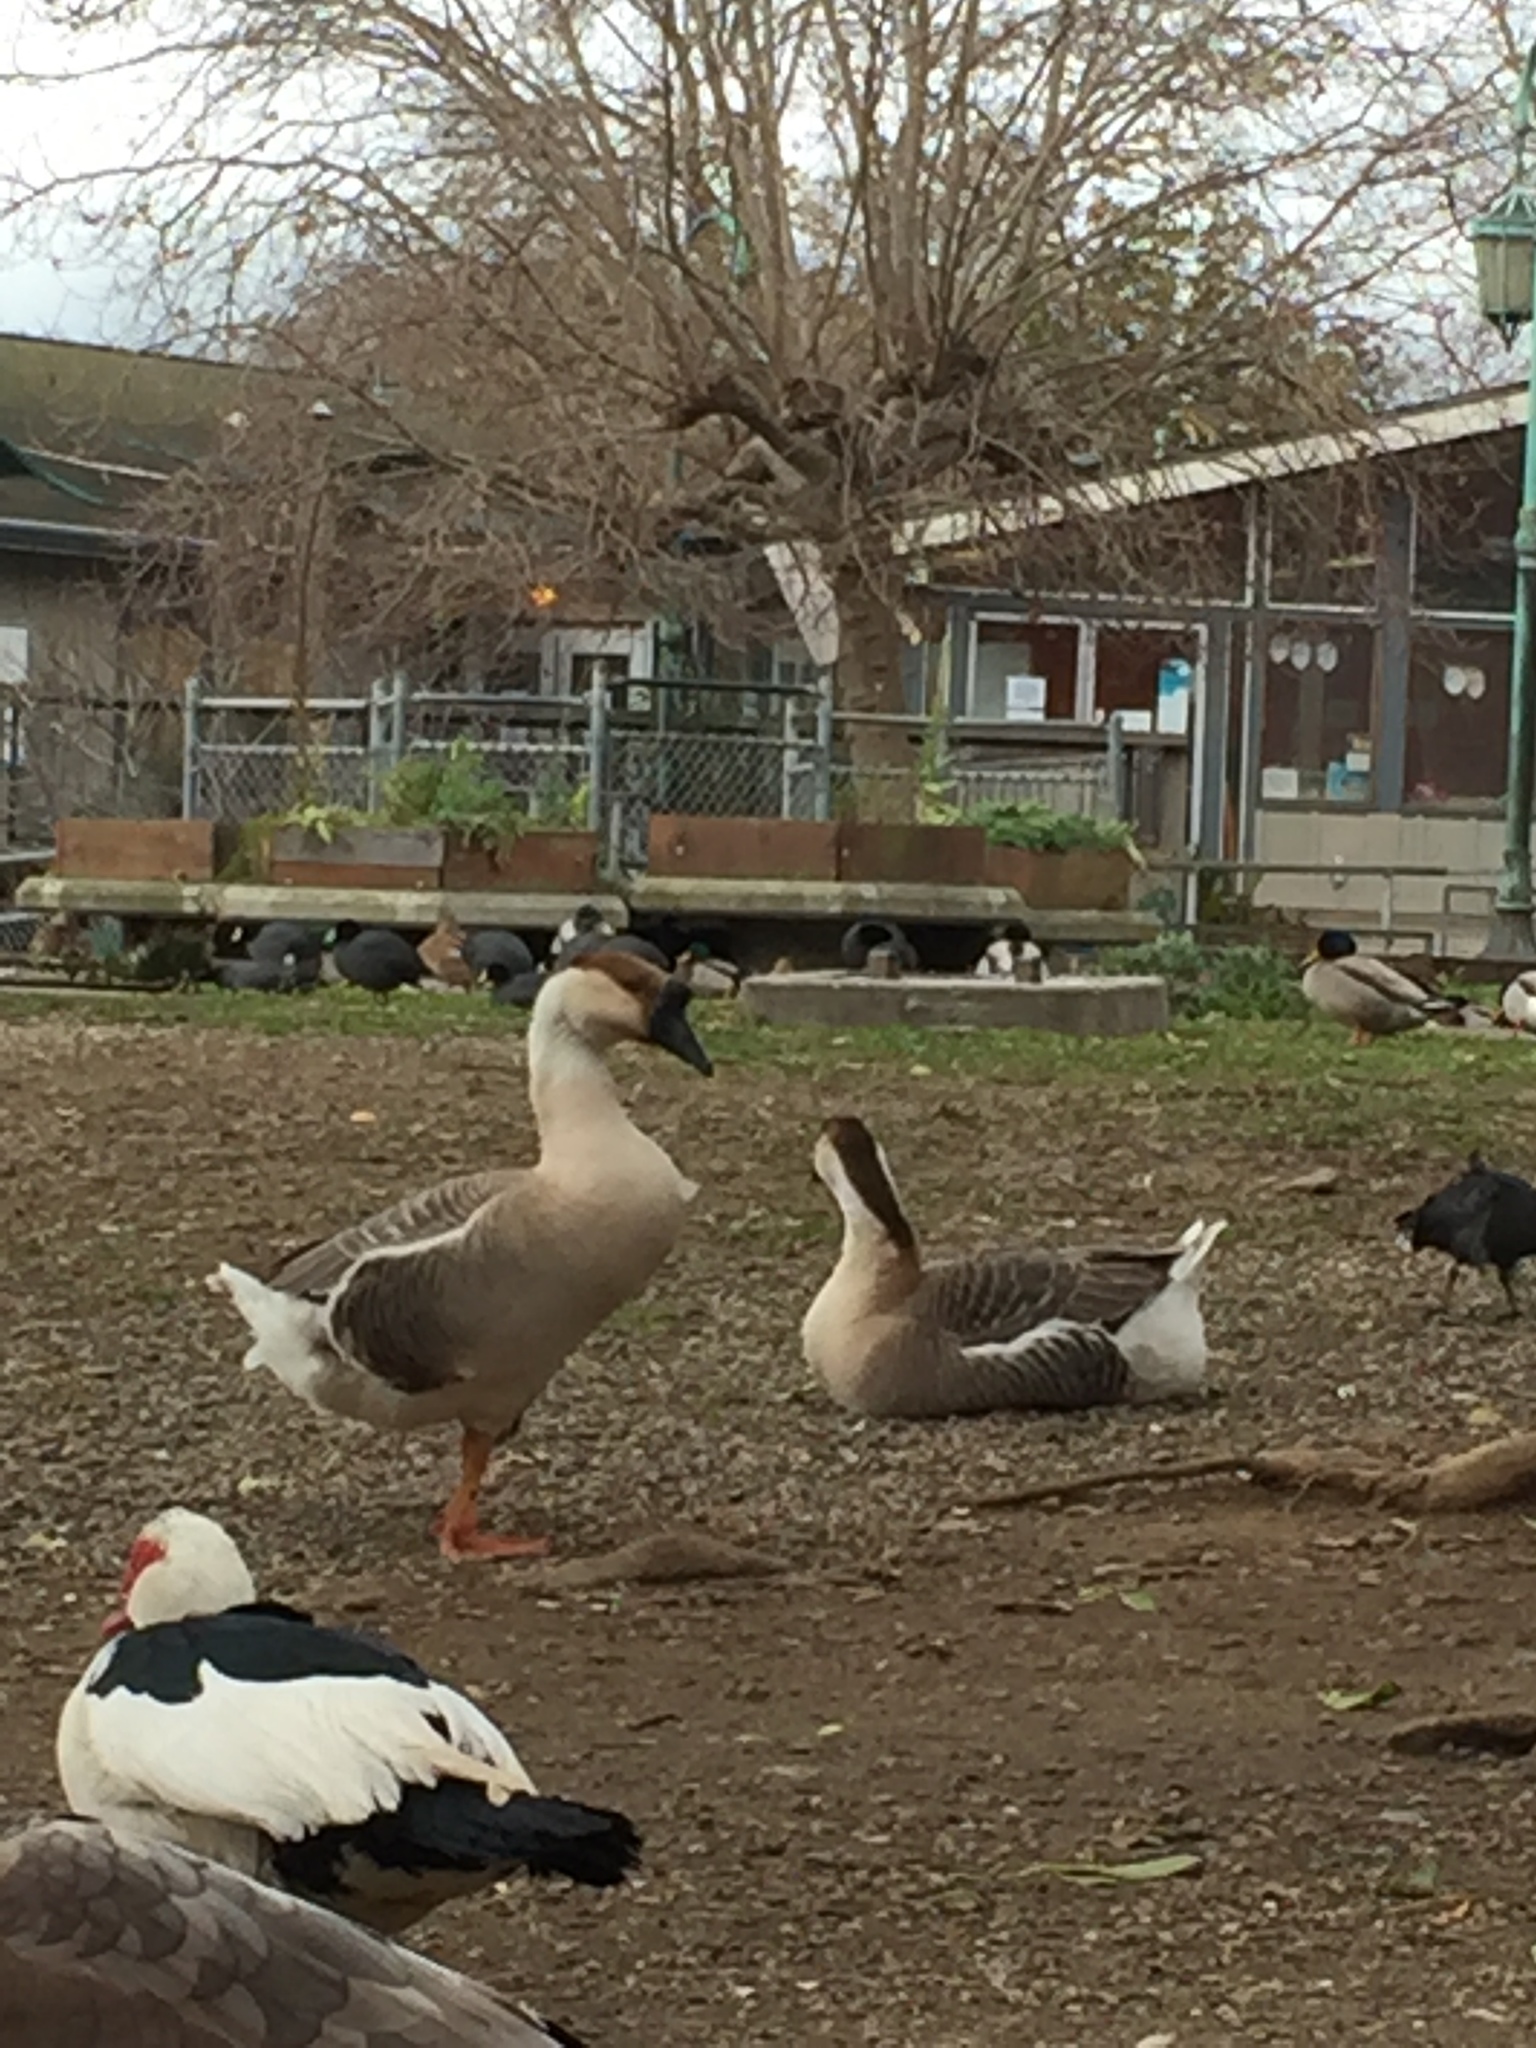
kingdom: Animalia
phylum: Chordata
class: Aves
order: Anseriformes
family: Anatidae
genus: Anser
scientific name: Anser cygnoides
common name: Swan goose
